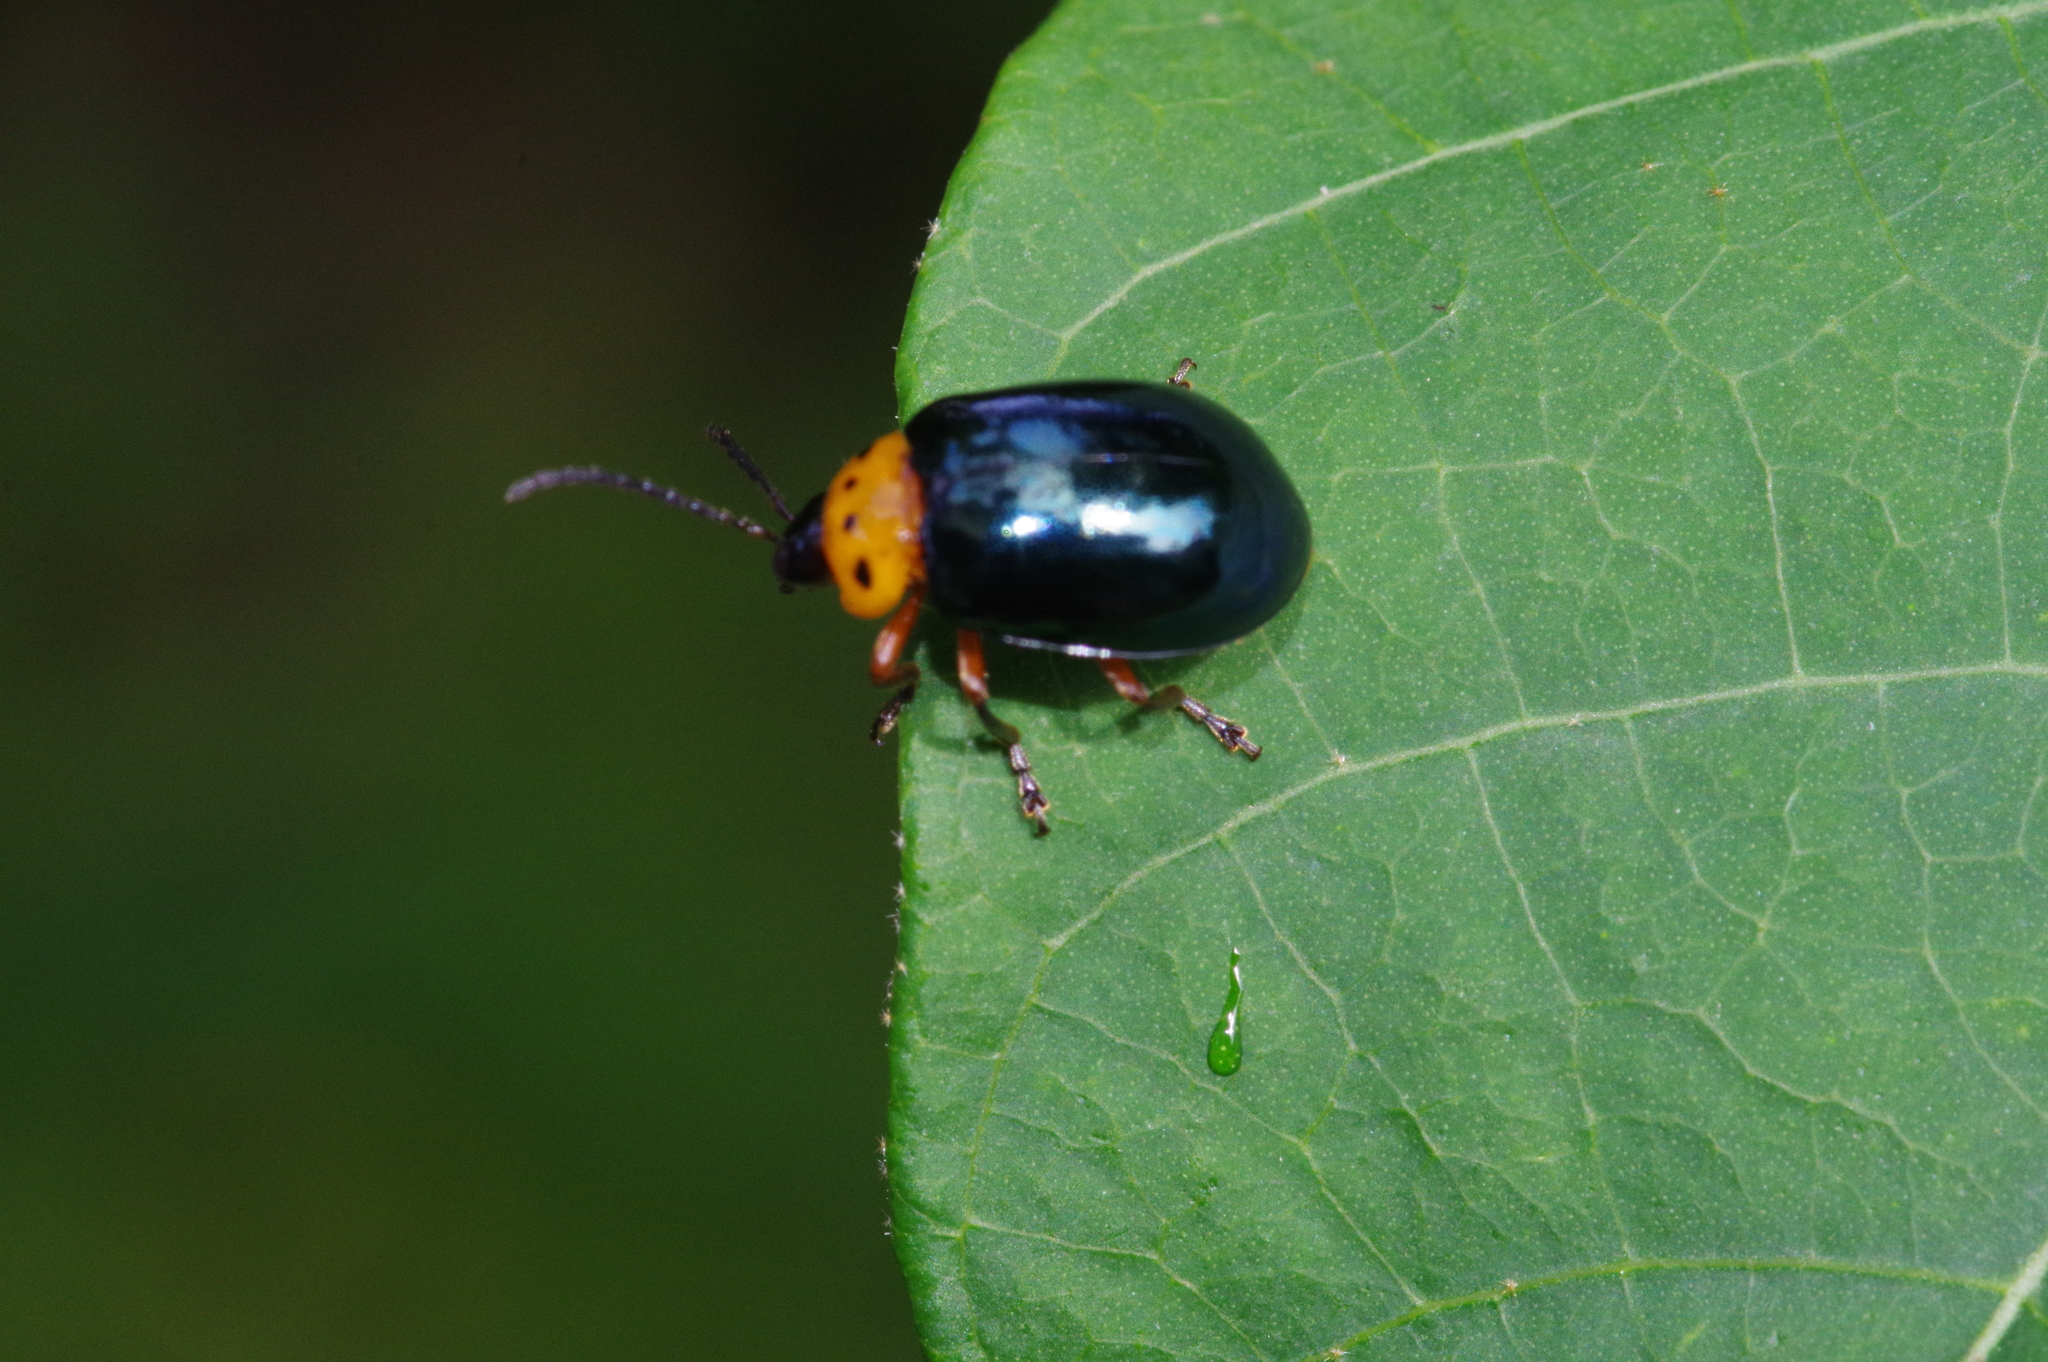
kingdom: Animalia
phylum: Arthropoda
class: Insecta
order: Coleoptera
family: Chrysomelidae
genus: Morphosphaera
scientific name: Morphosphaera caerulea
